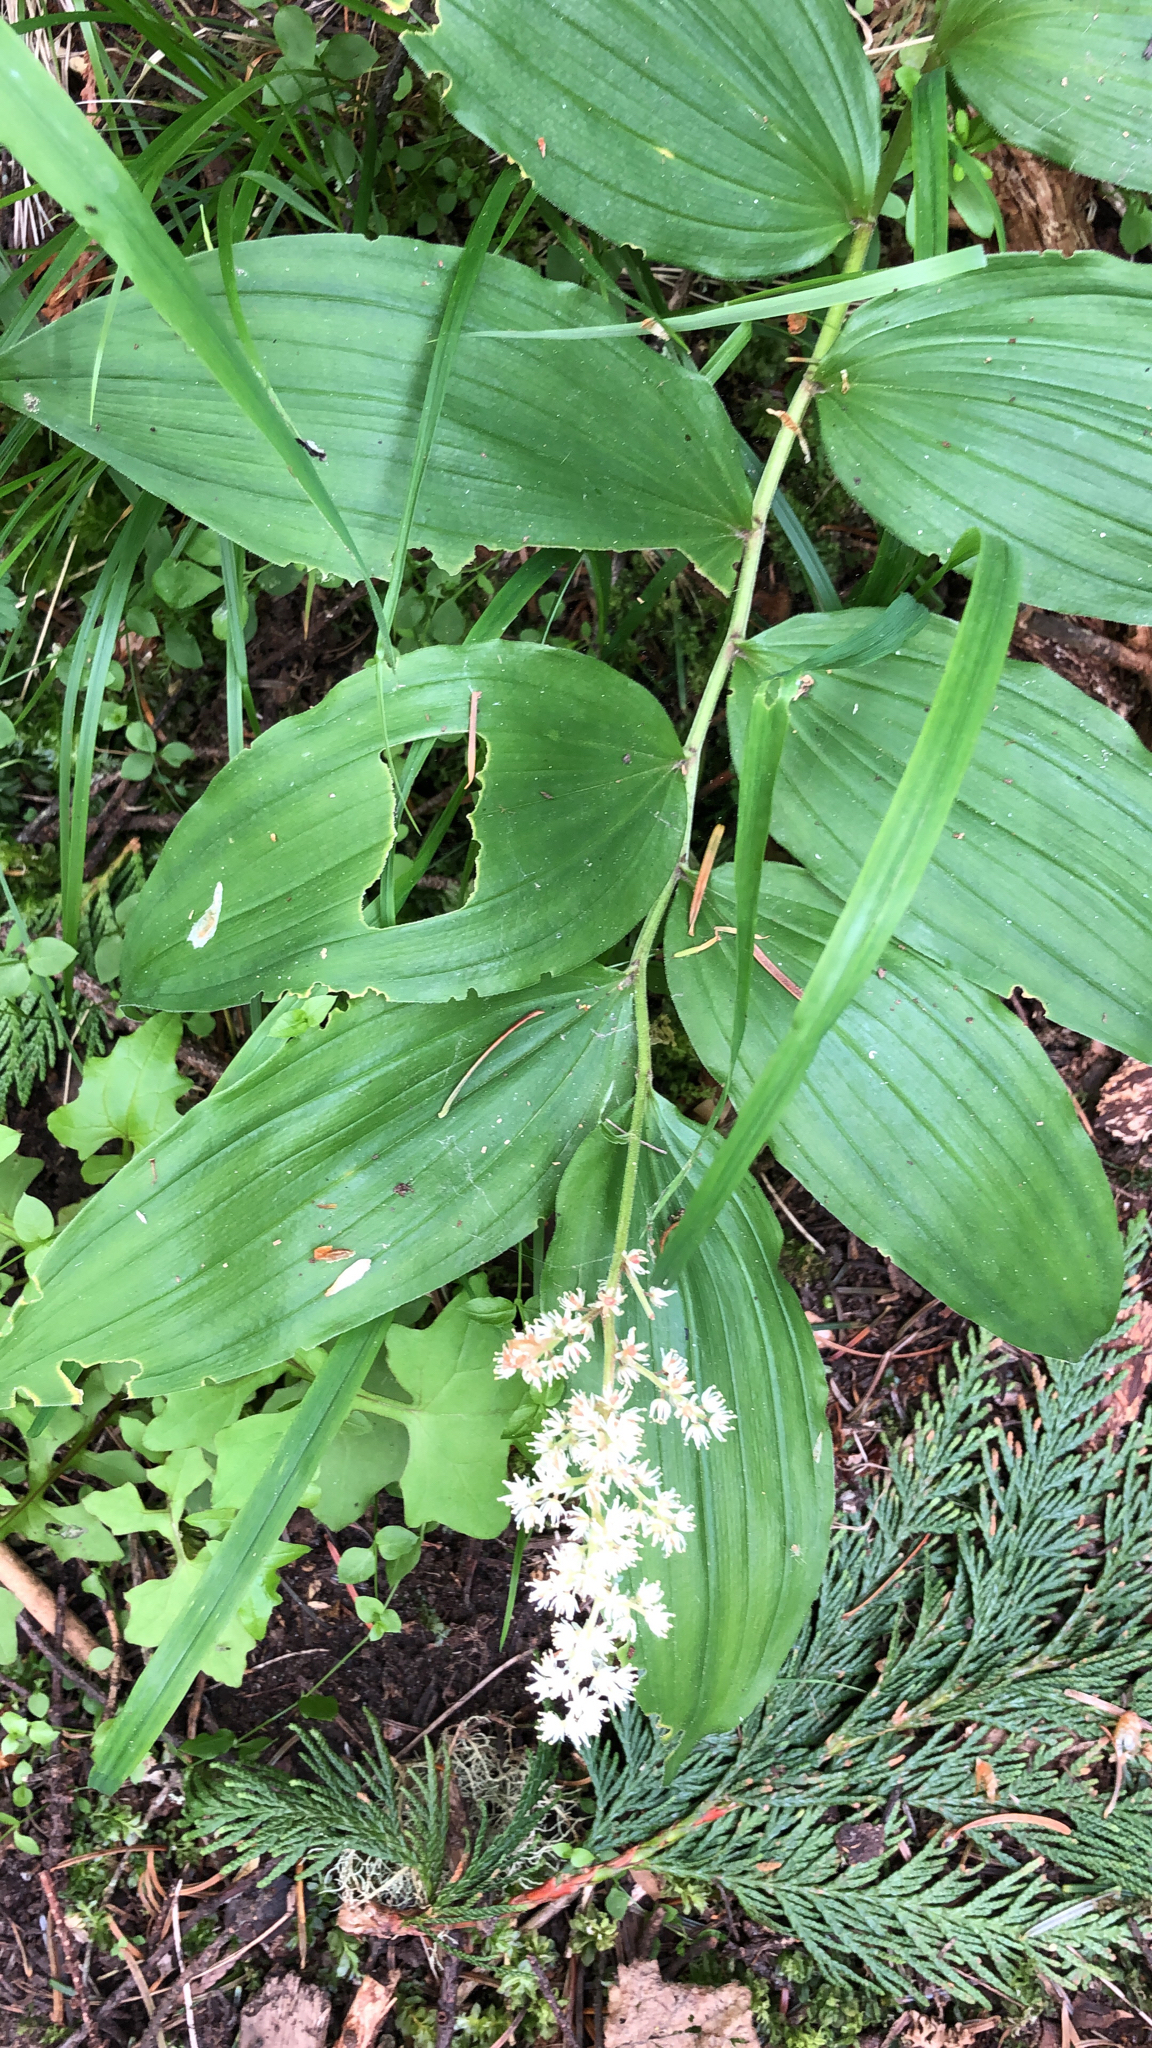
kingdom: Plantae
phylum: Tracheophyta
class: Liliopsida
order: Asparagales
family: Asparagaceae
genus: Maianthemum
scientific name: Maianthemum racemosum
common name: False spikenard
